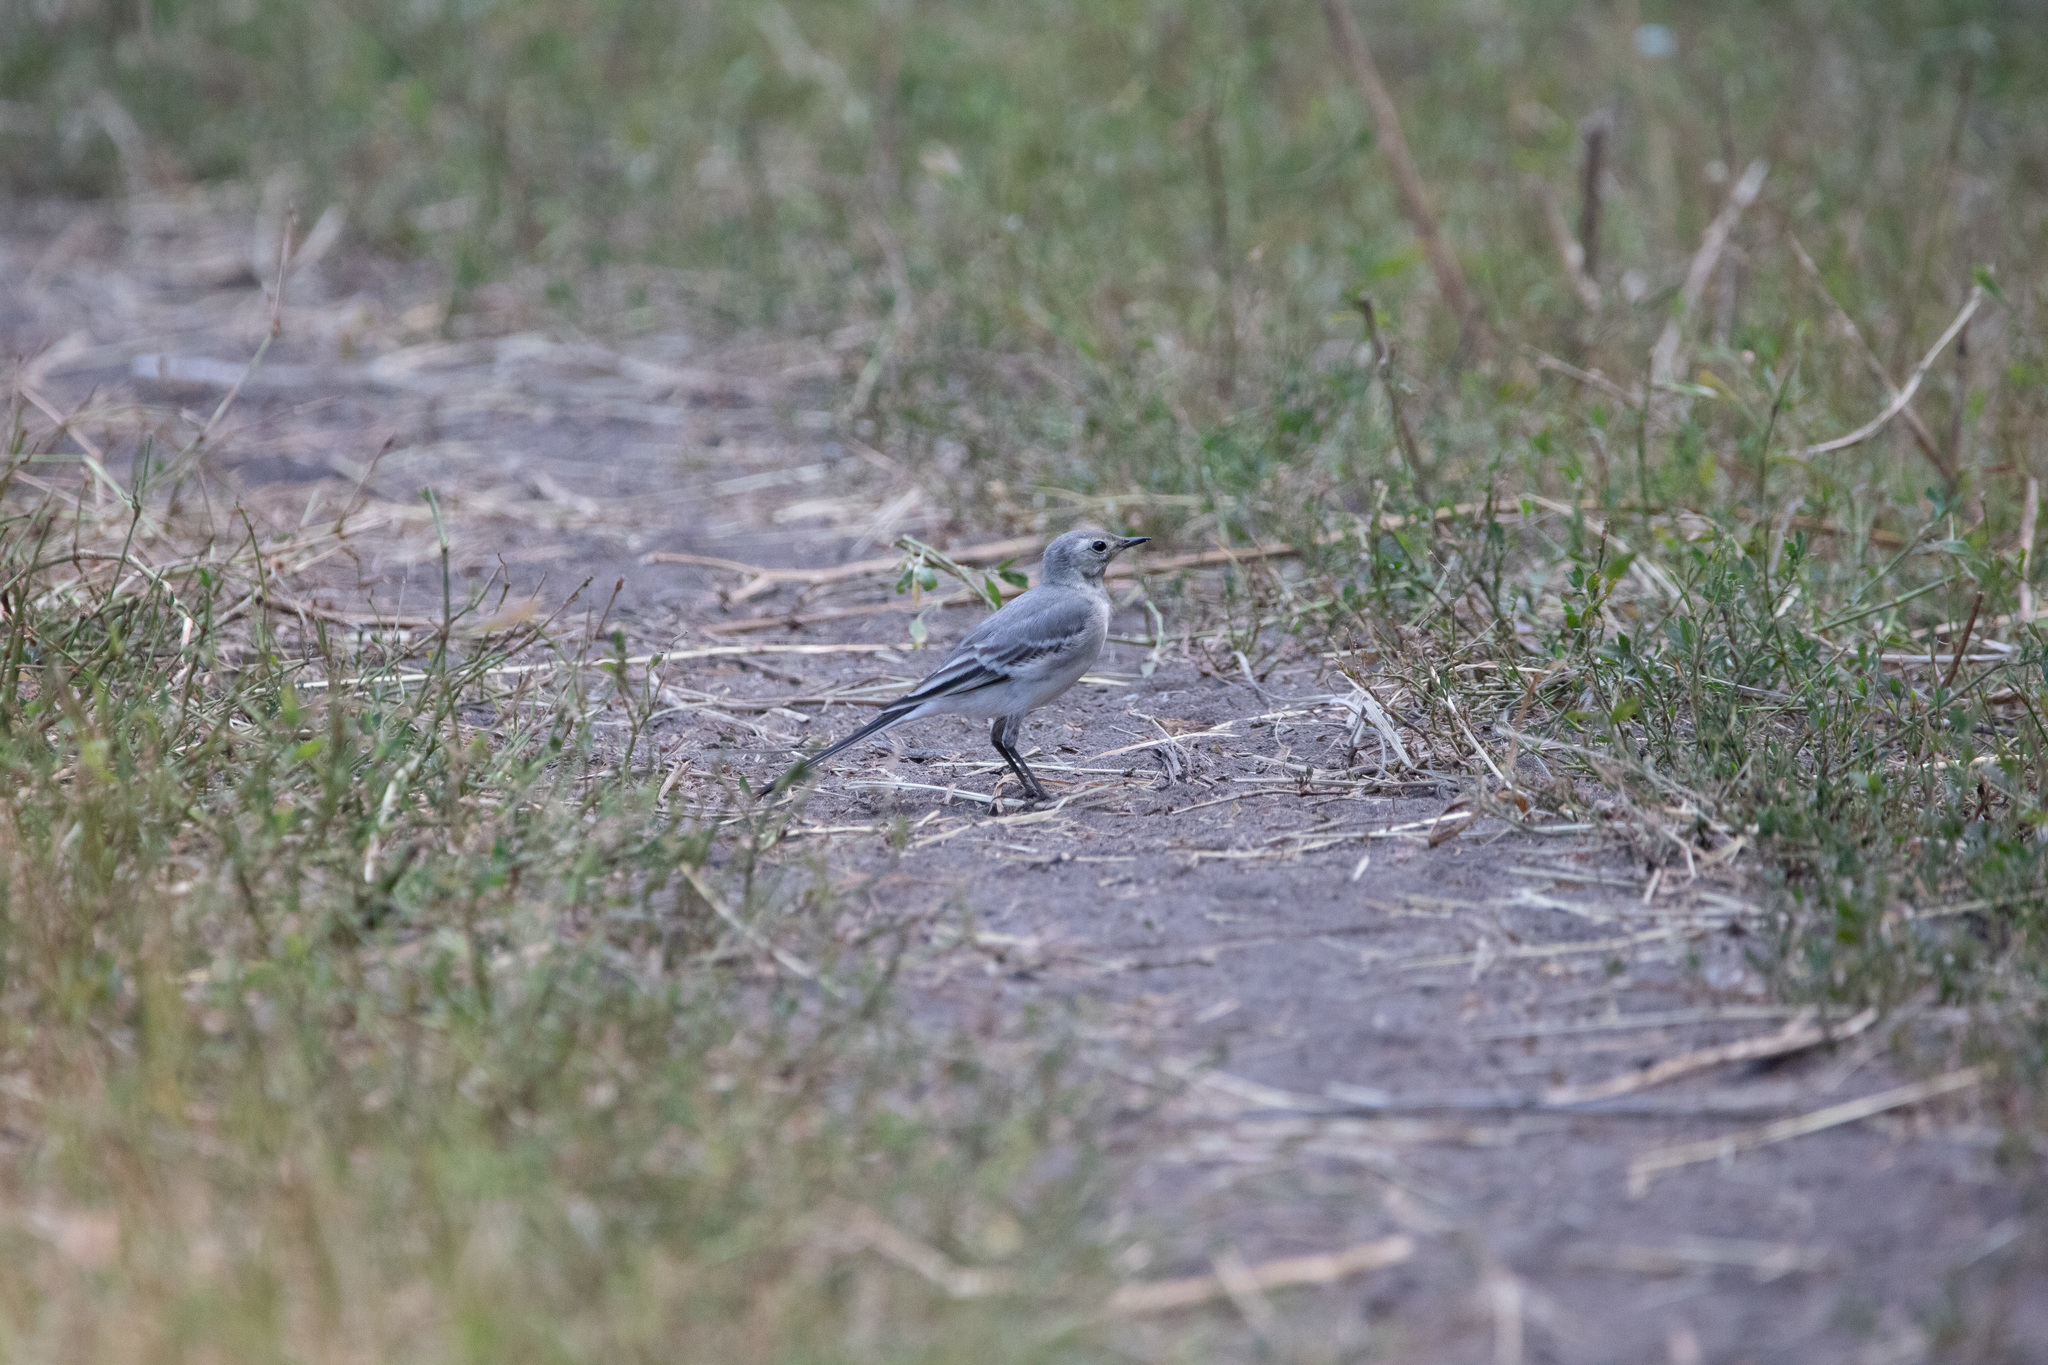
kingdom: Animalia
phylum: Chordata
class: Aves
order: Passeriformes
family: Motacillidae
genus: Motacilla
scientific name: Motacilla alba
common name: White wagtail
